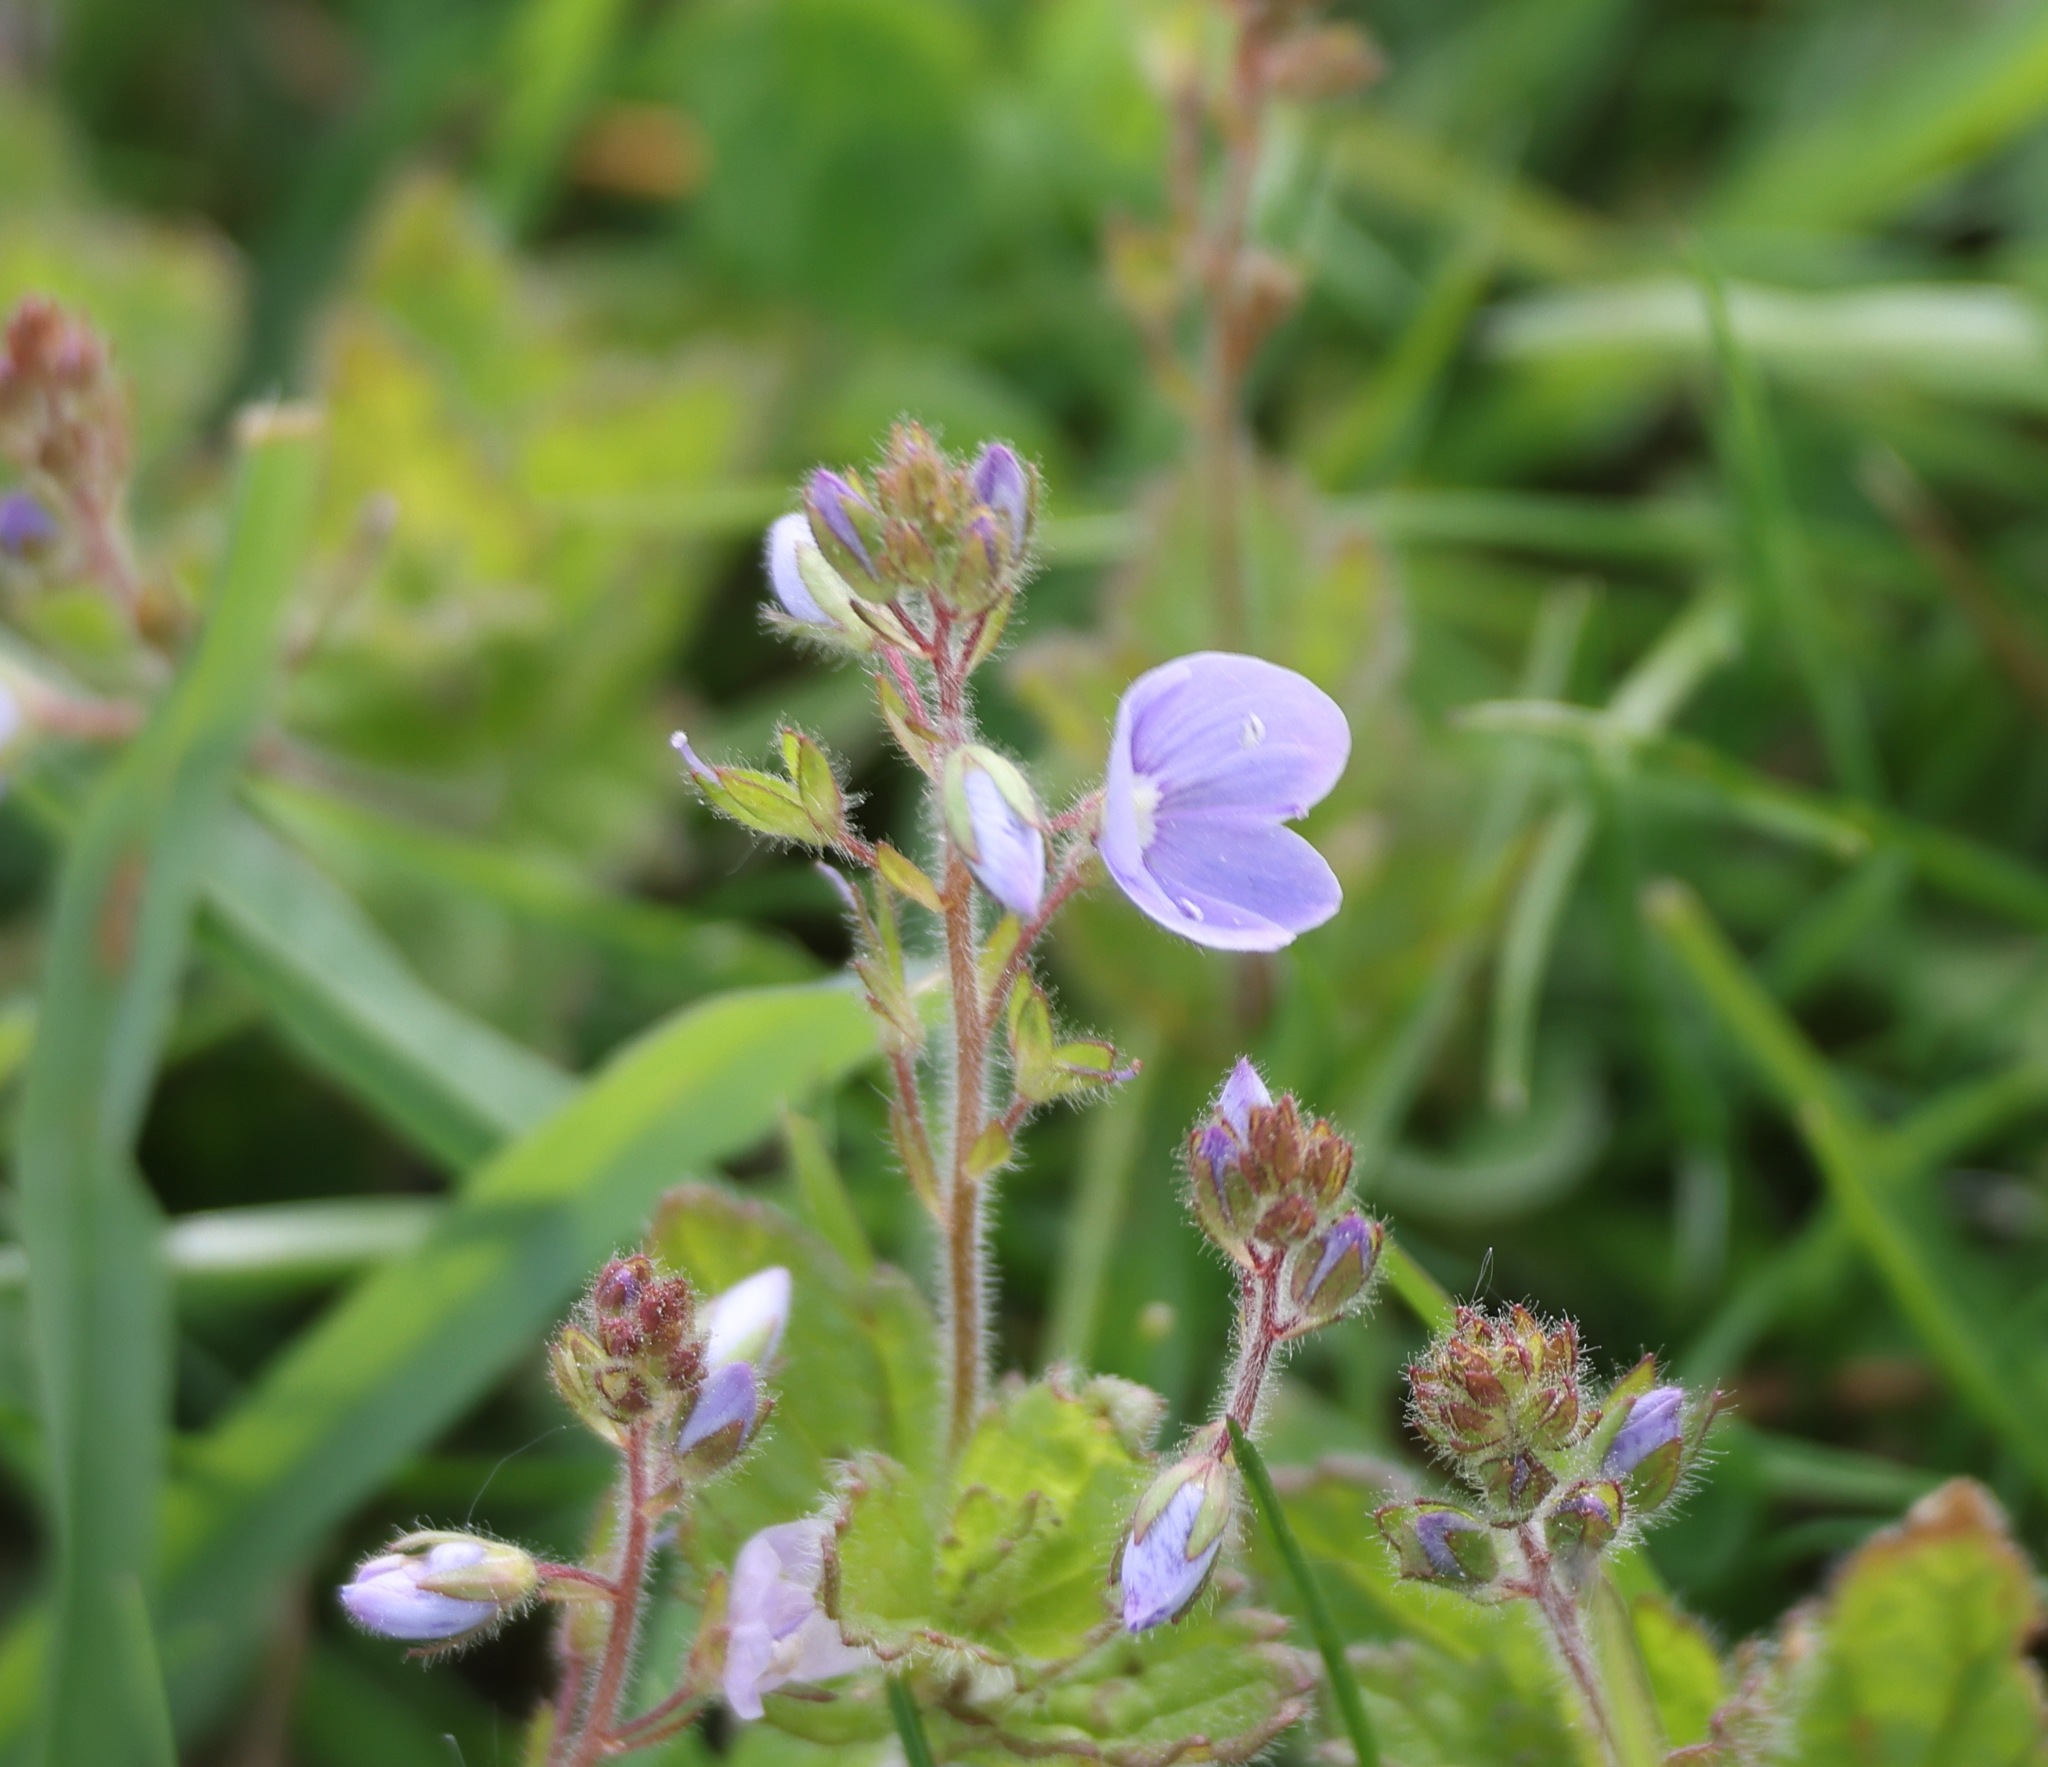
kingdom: Plantae
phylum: Tracheophyta
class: Magnoliopsida
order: Lamiales
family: Plantaginaceae
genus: Veronica
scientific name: Veronica chamaedrys
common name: Germander speedwell
